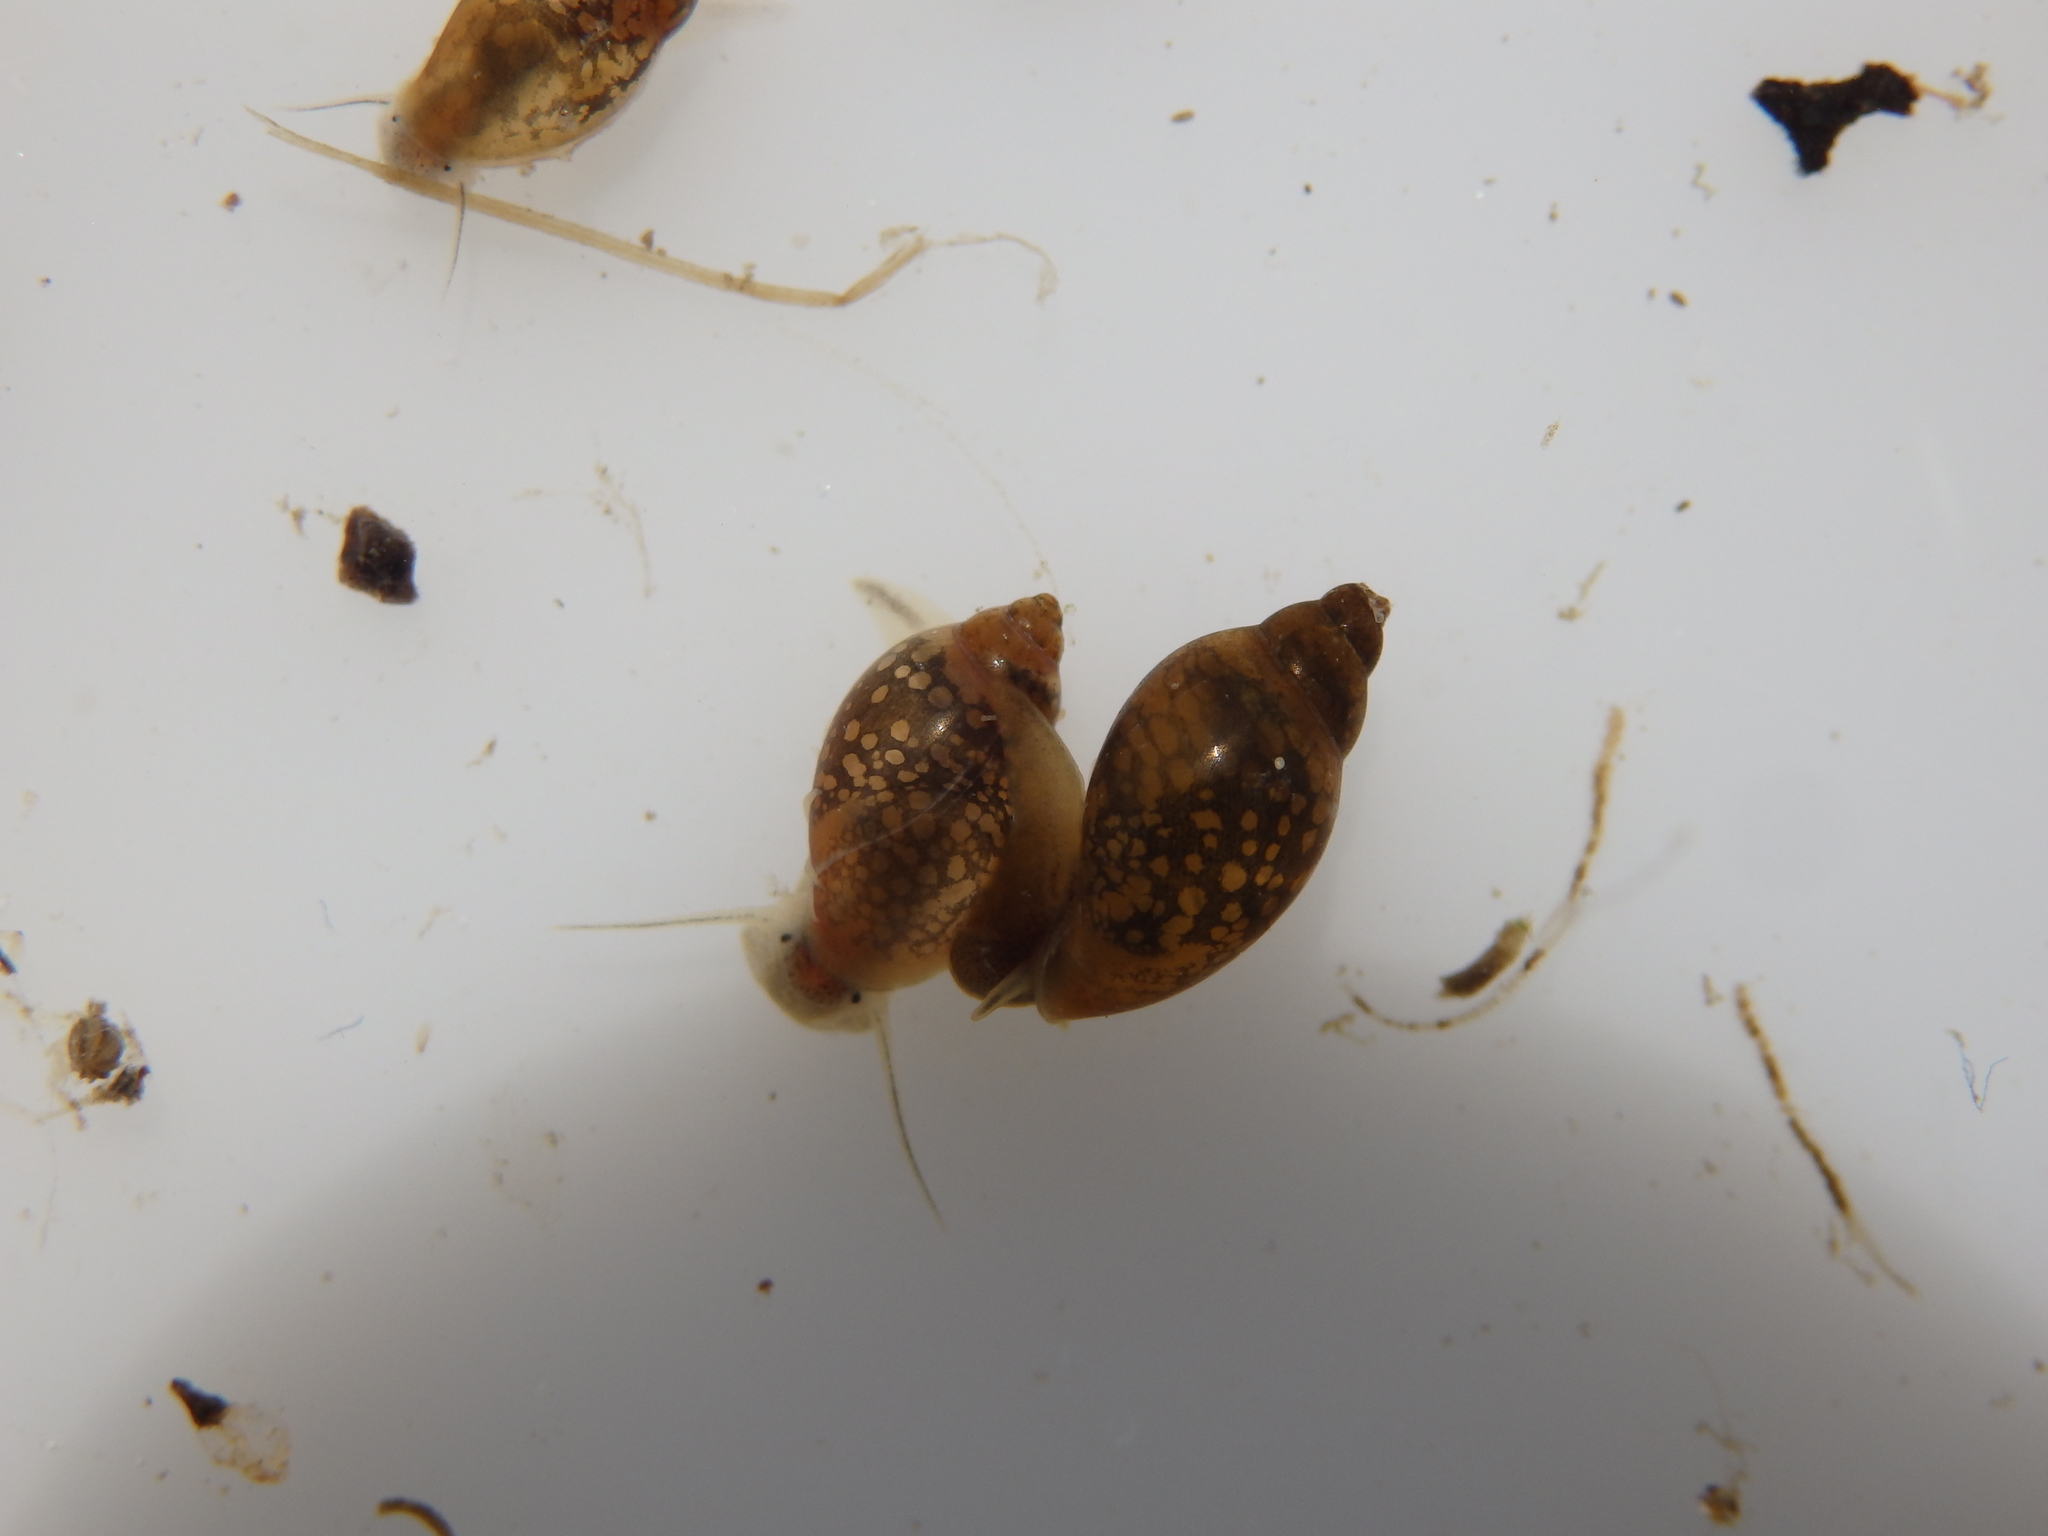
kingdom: Animalia
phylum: Mollusca
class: Gastropoda
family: Physidae
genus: Physella
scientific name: Physella acuta
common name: European physa
